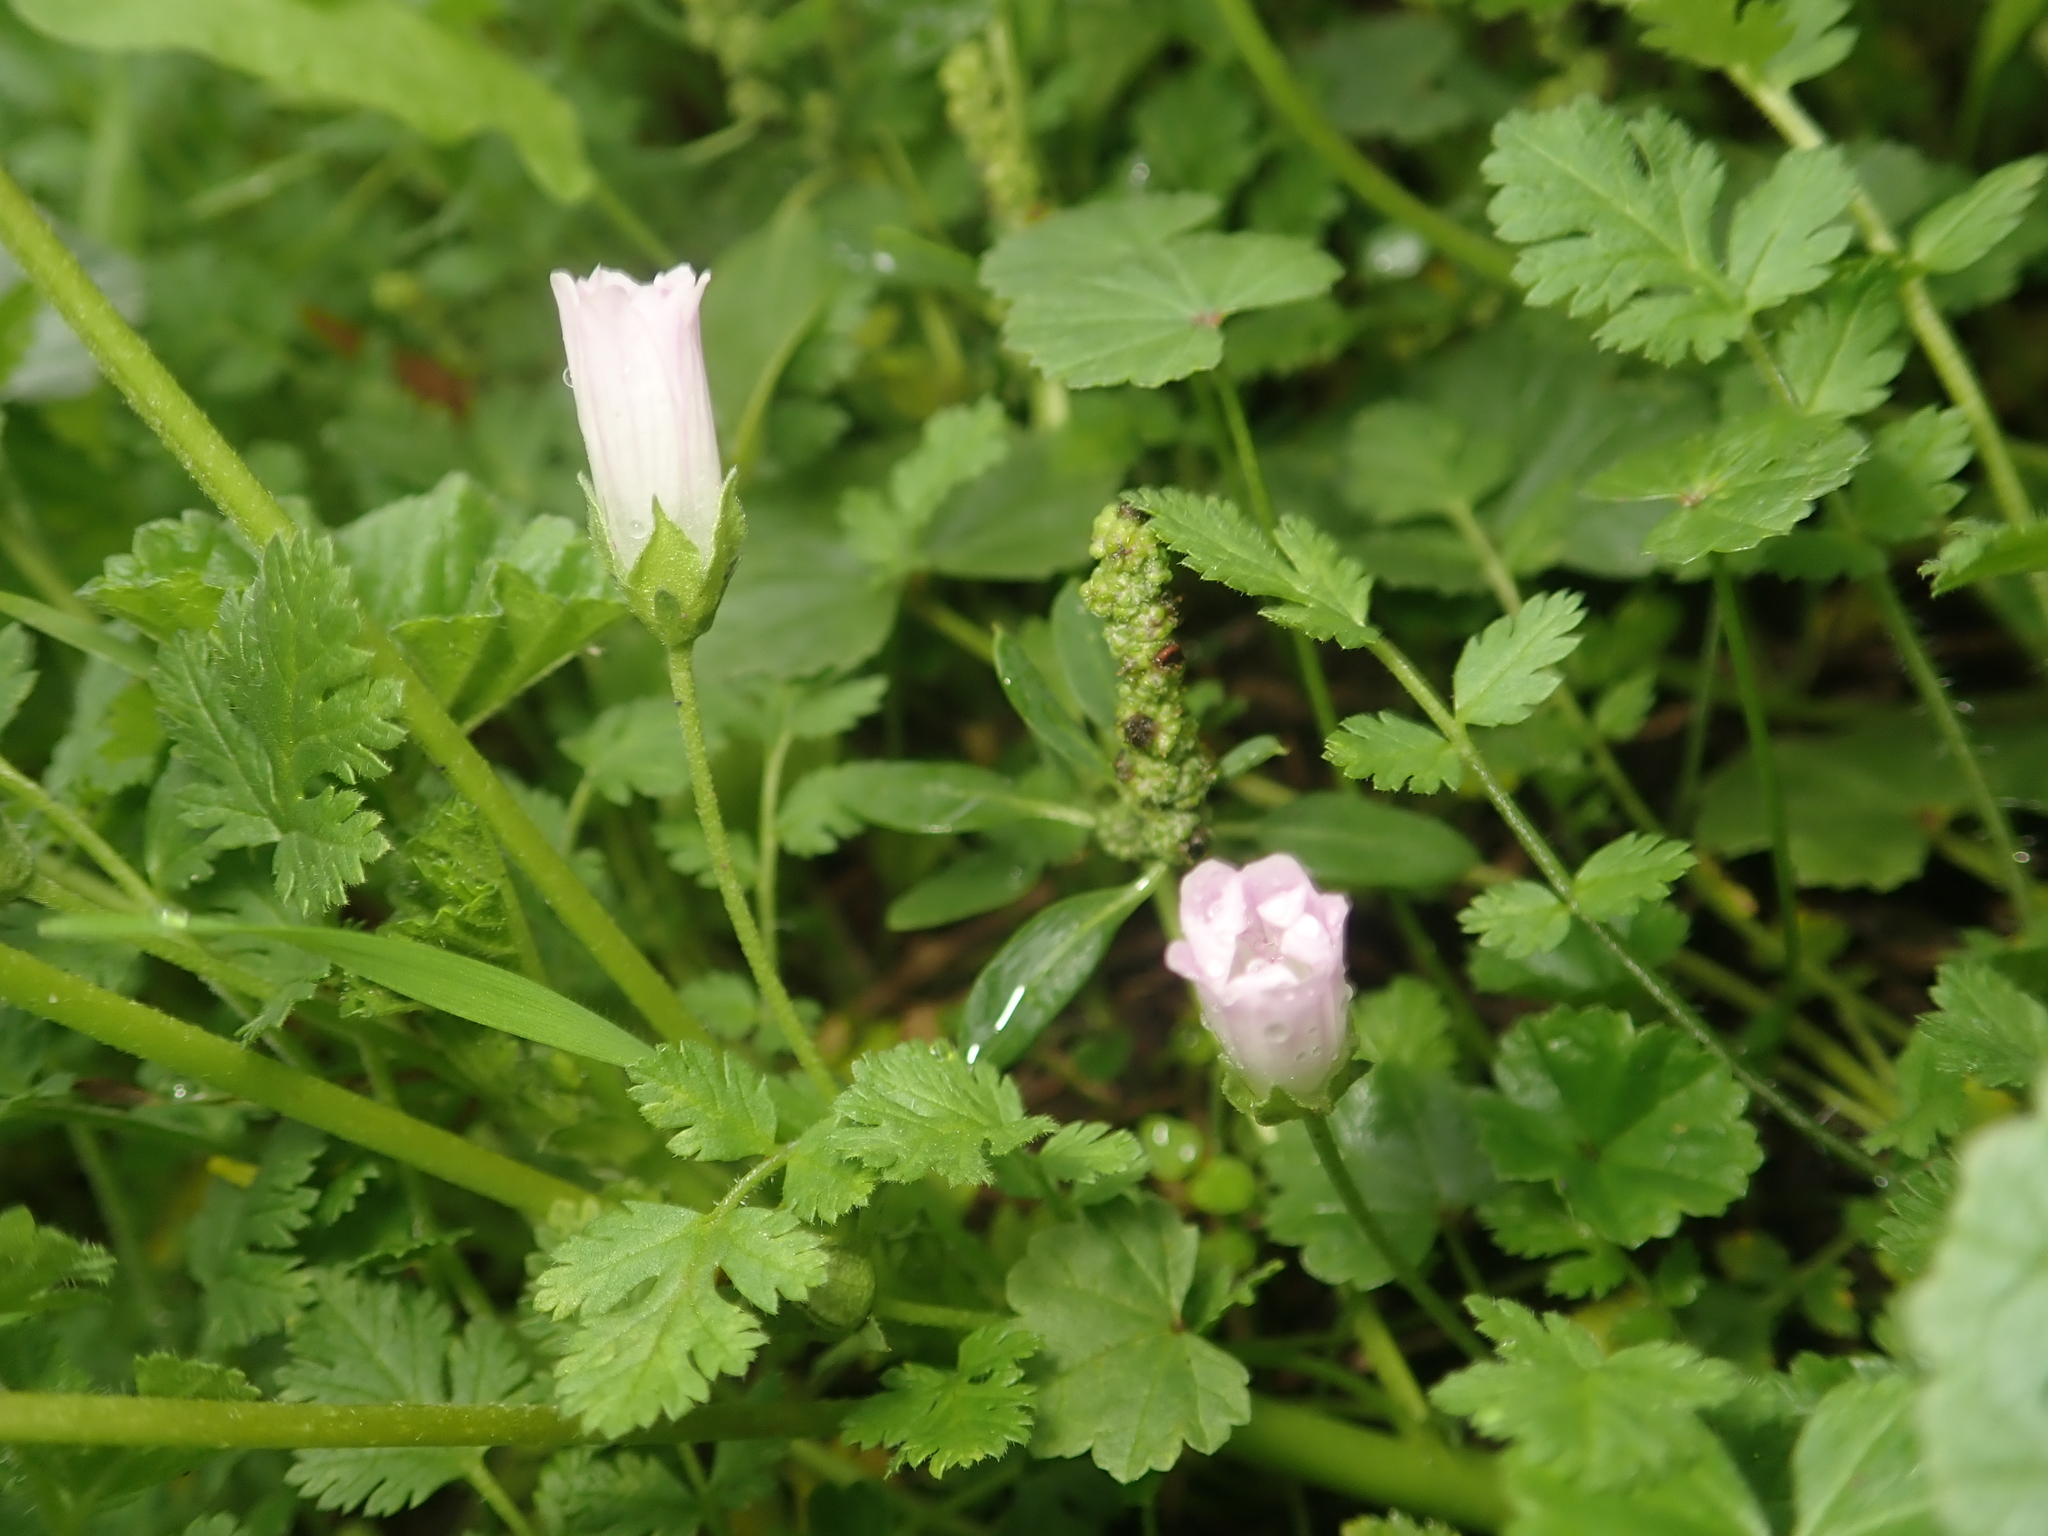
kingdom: Plantae
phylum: Tracheophyta
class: Magnoliopsida
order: Malvales
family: Malvaceae
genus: Malva
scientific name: Malva neglecta
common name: Common mallow
